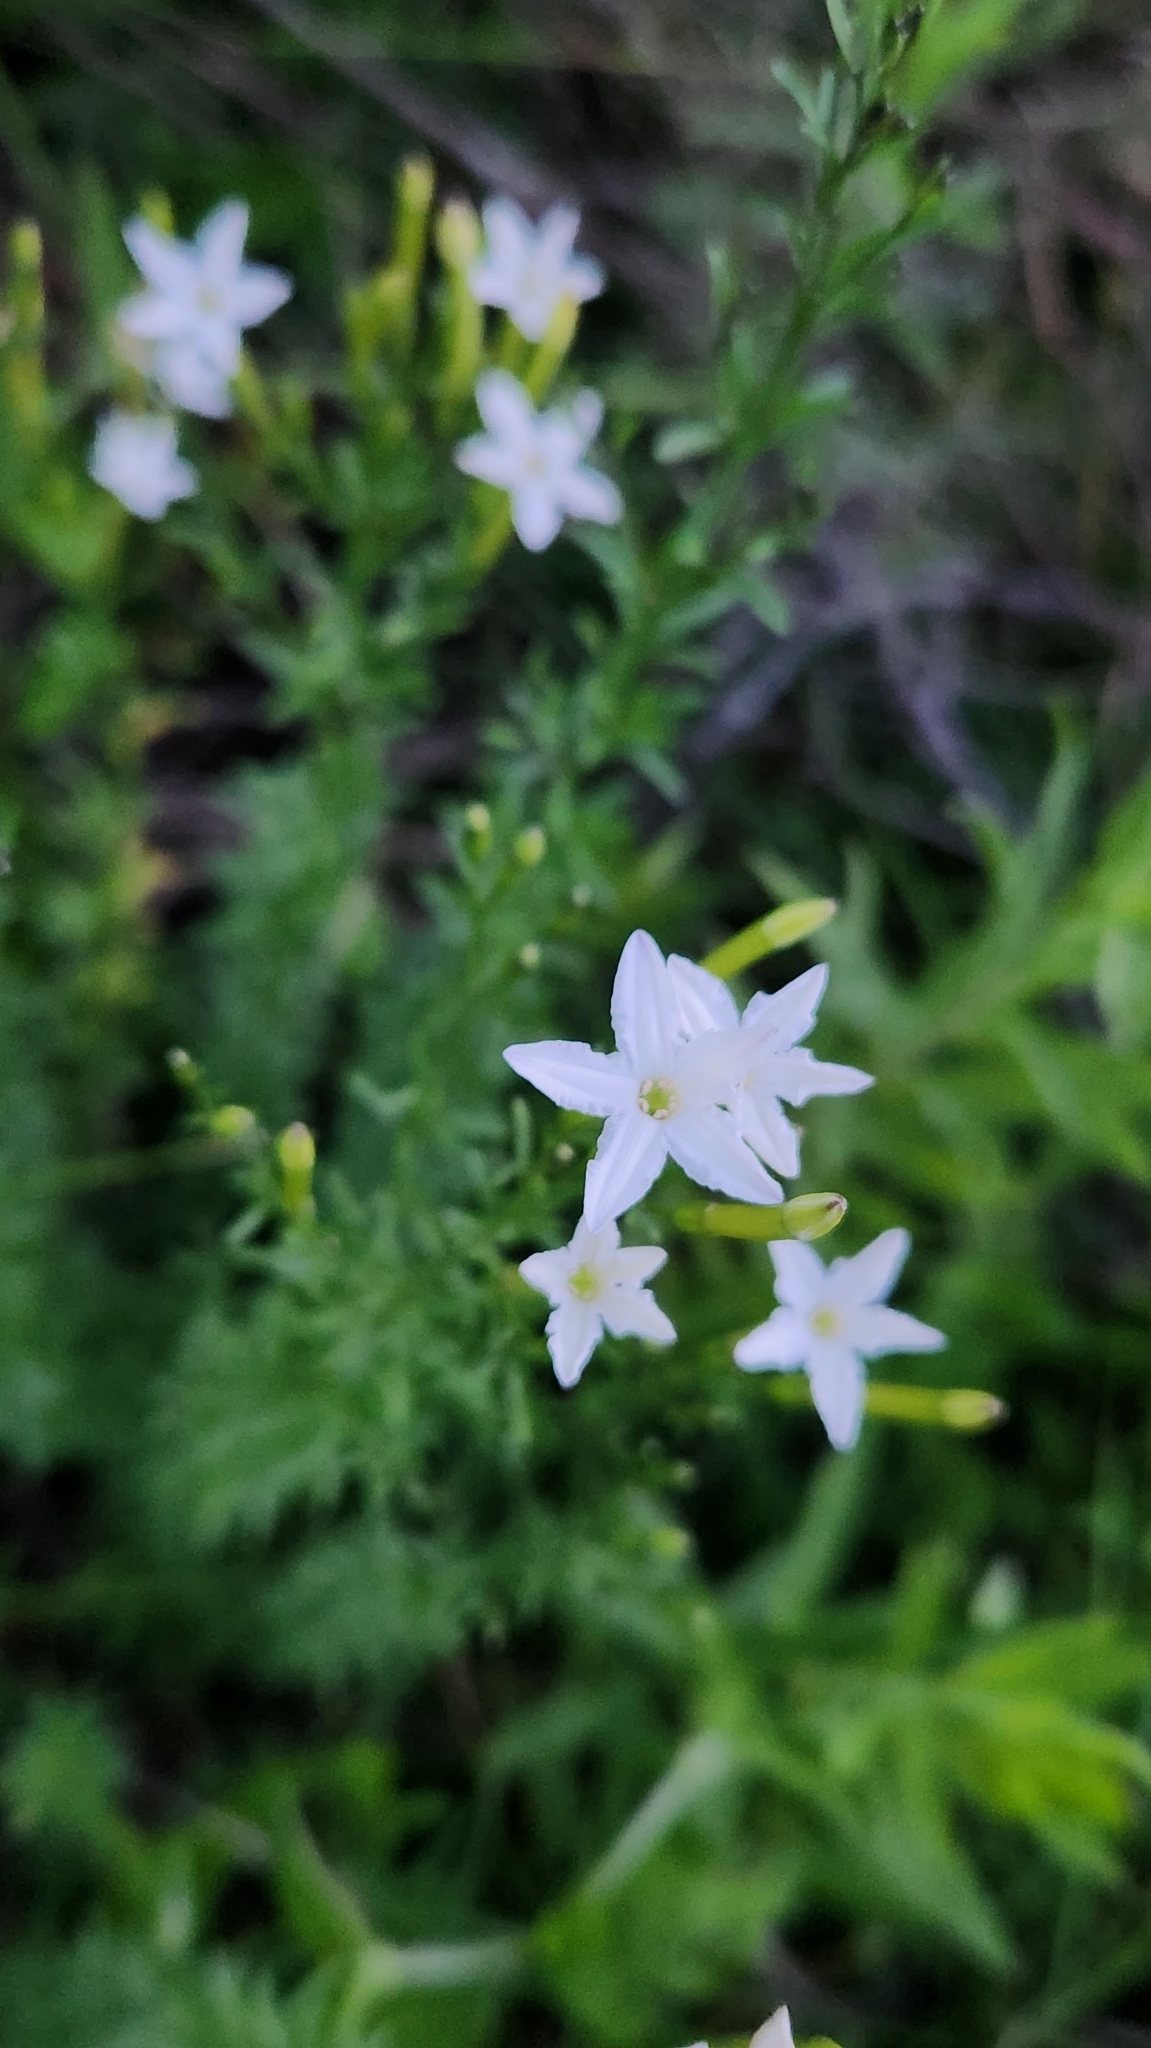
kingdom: Plantae
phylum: Tracheophyta
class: Magnoliopsida
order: Solanales
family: Solanaceae
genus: Sessea
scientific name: Sessea vestioides
